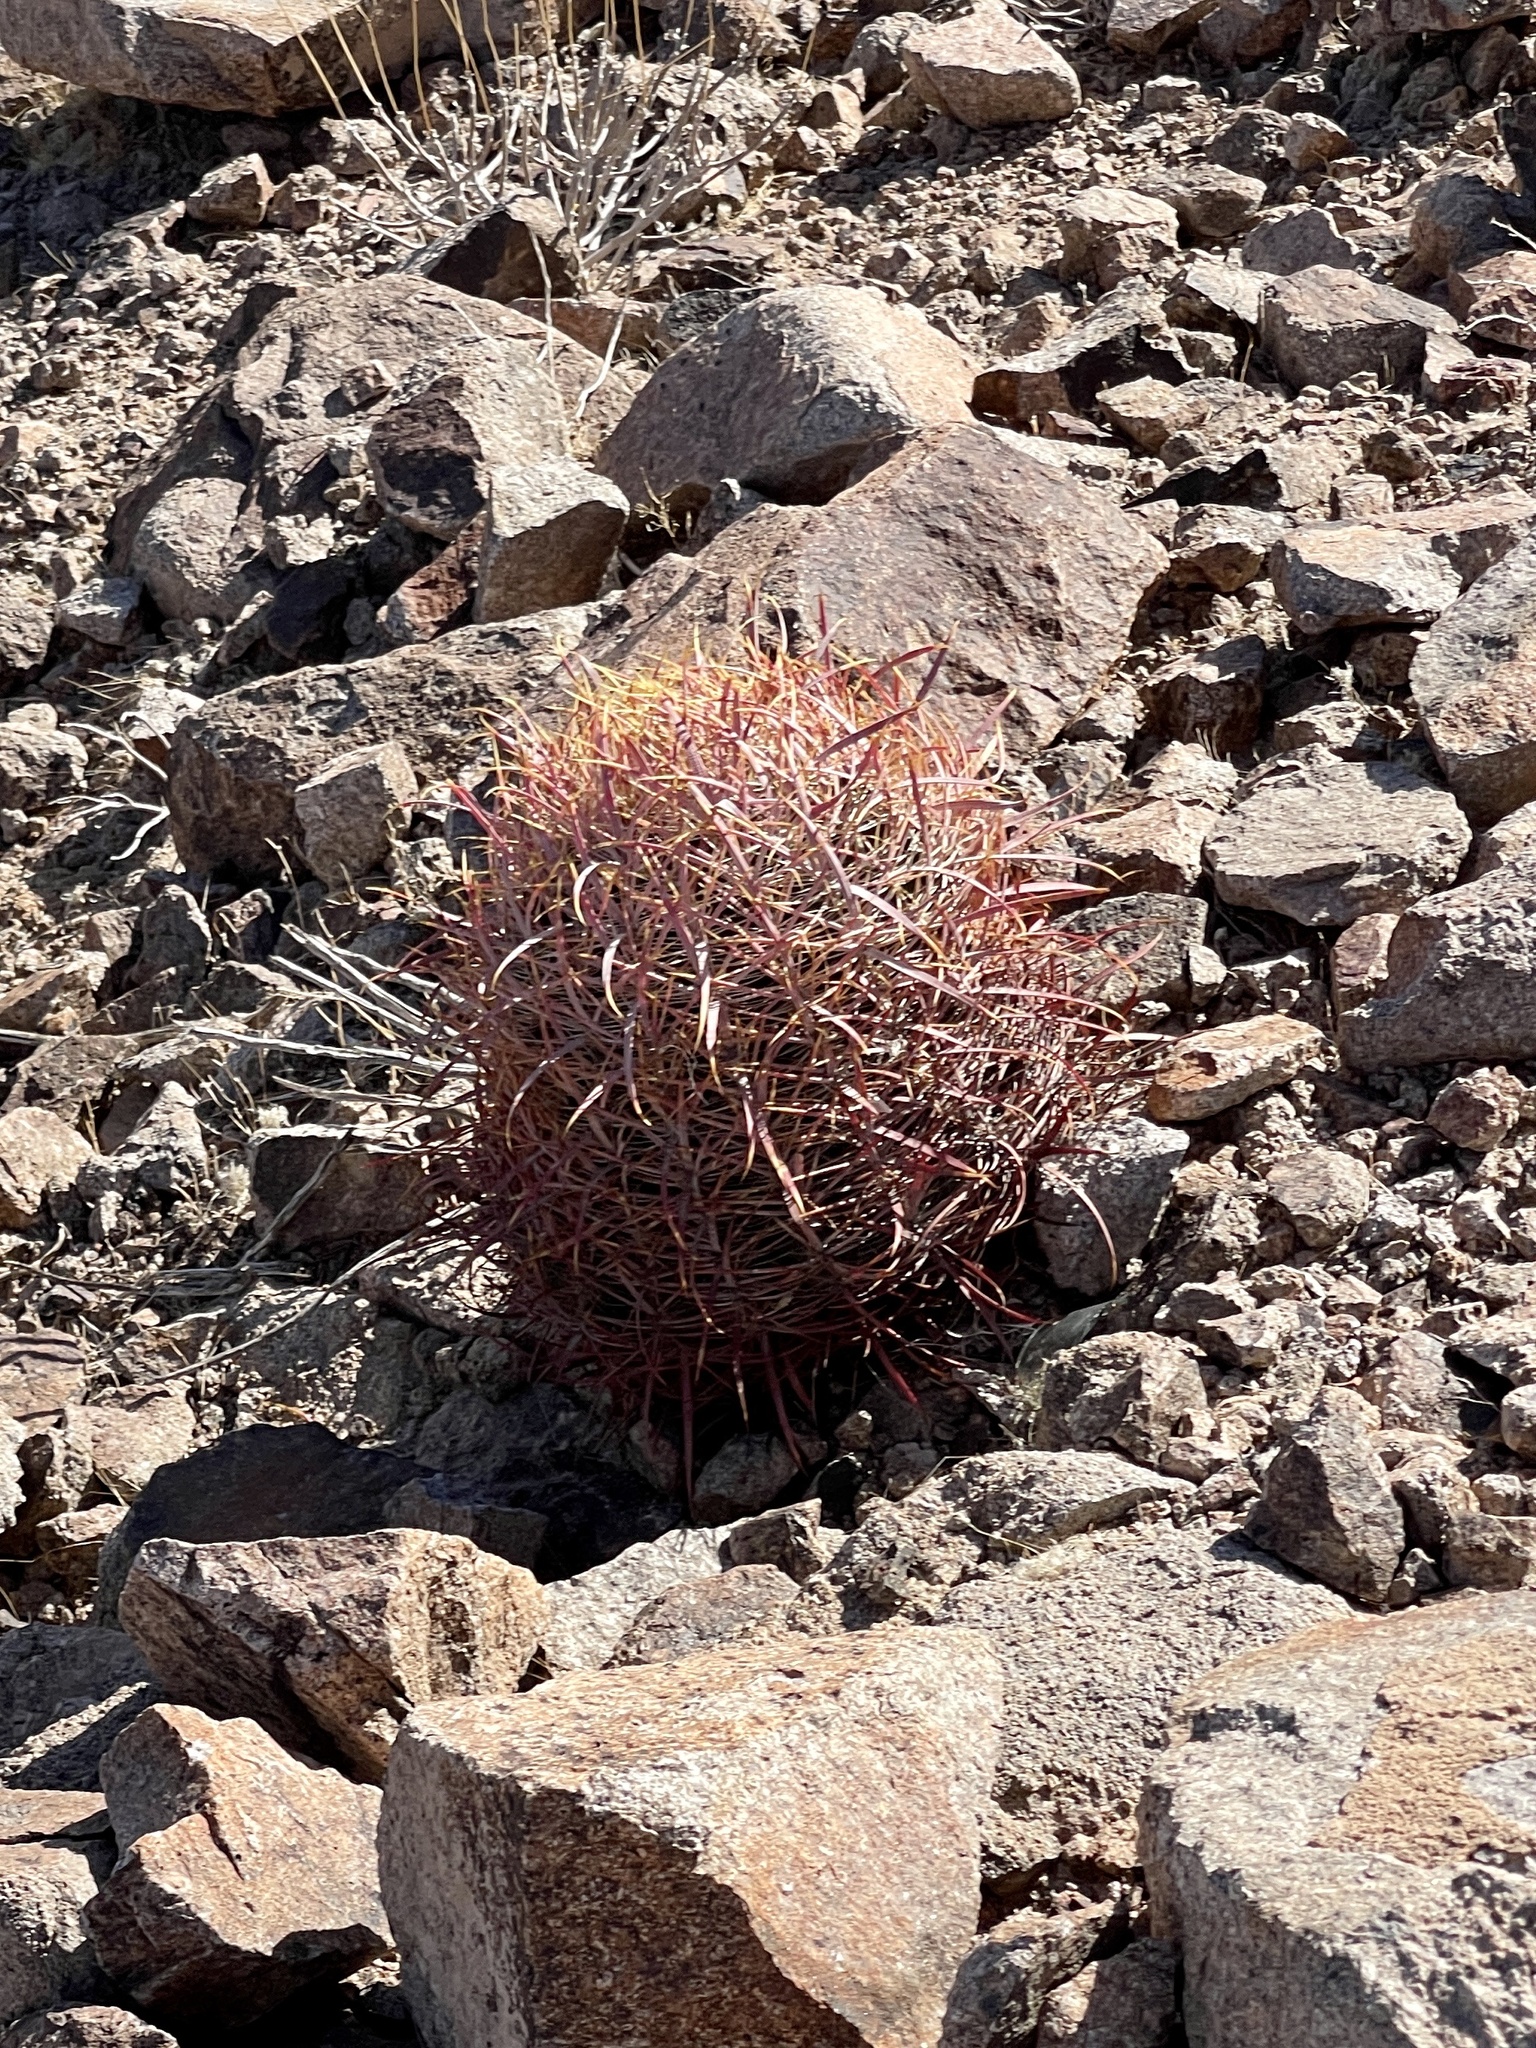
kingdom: Plantae
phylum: Tracheophyta
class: Magnoliopsida
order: Caryophyllales
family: Cactaceae
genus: Ferocactus
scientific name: Ferocactus cylindraceus
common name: California barrel cactus
